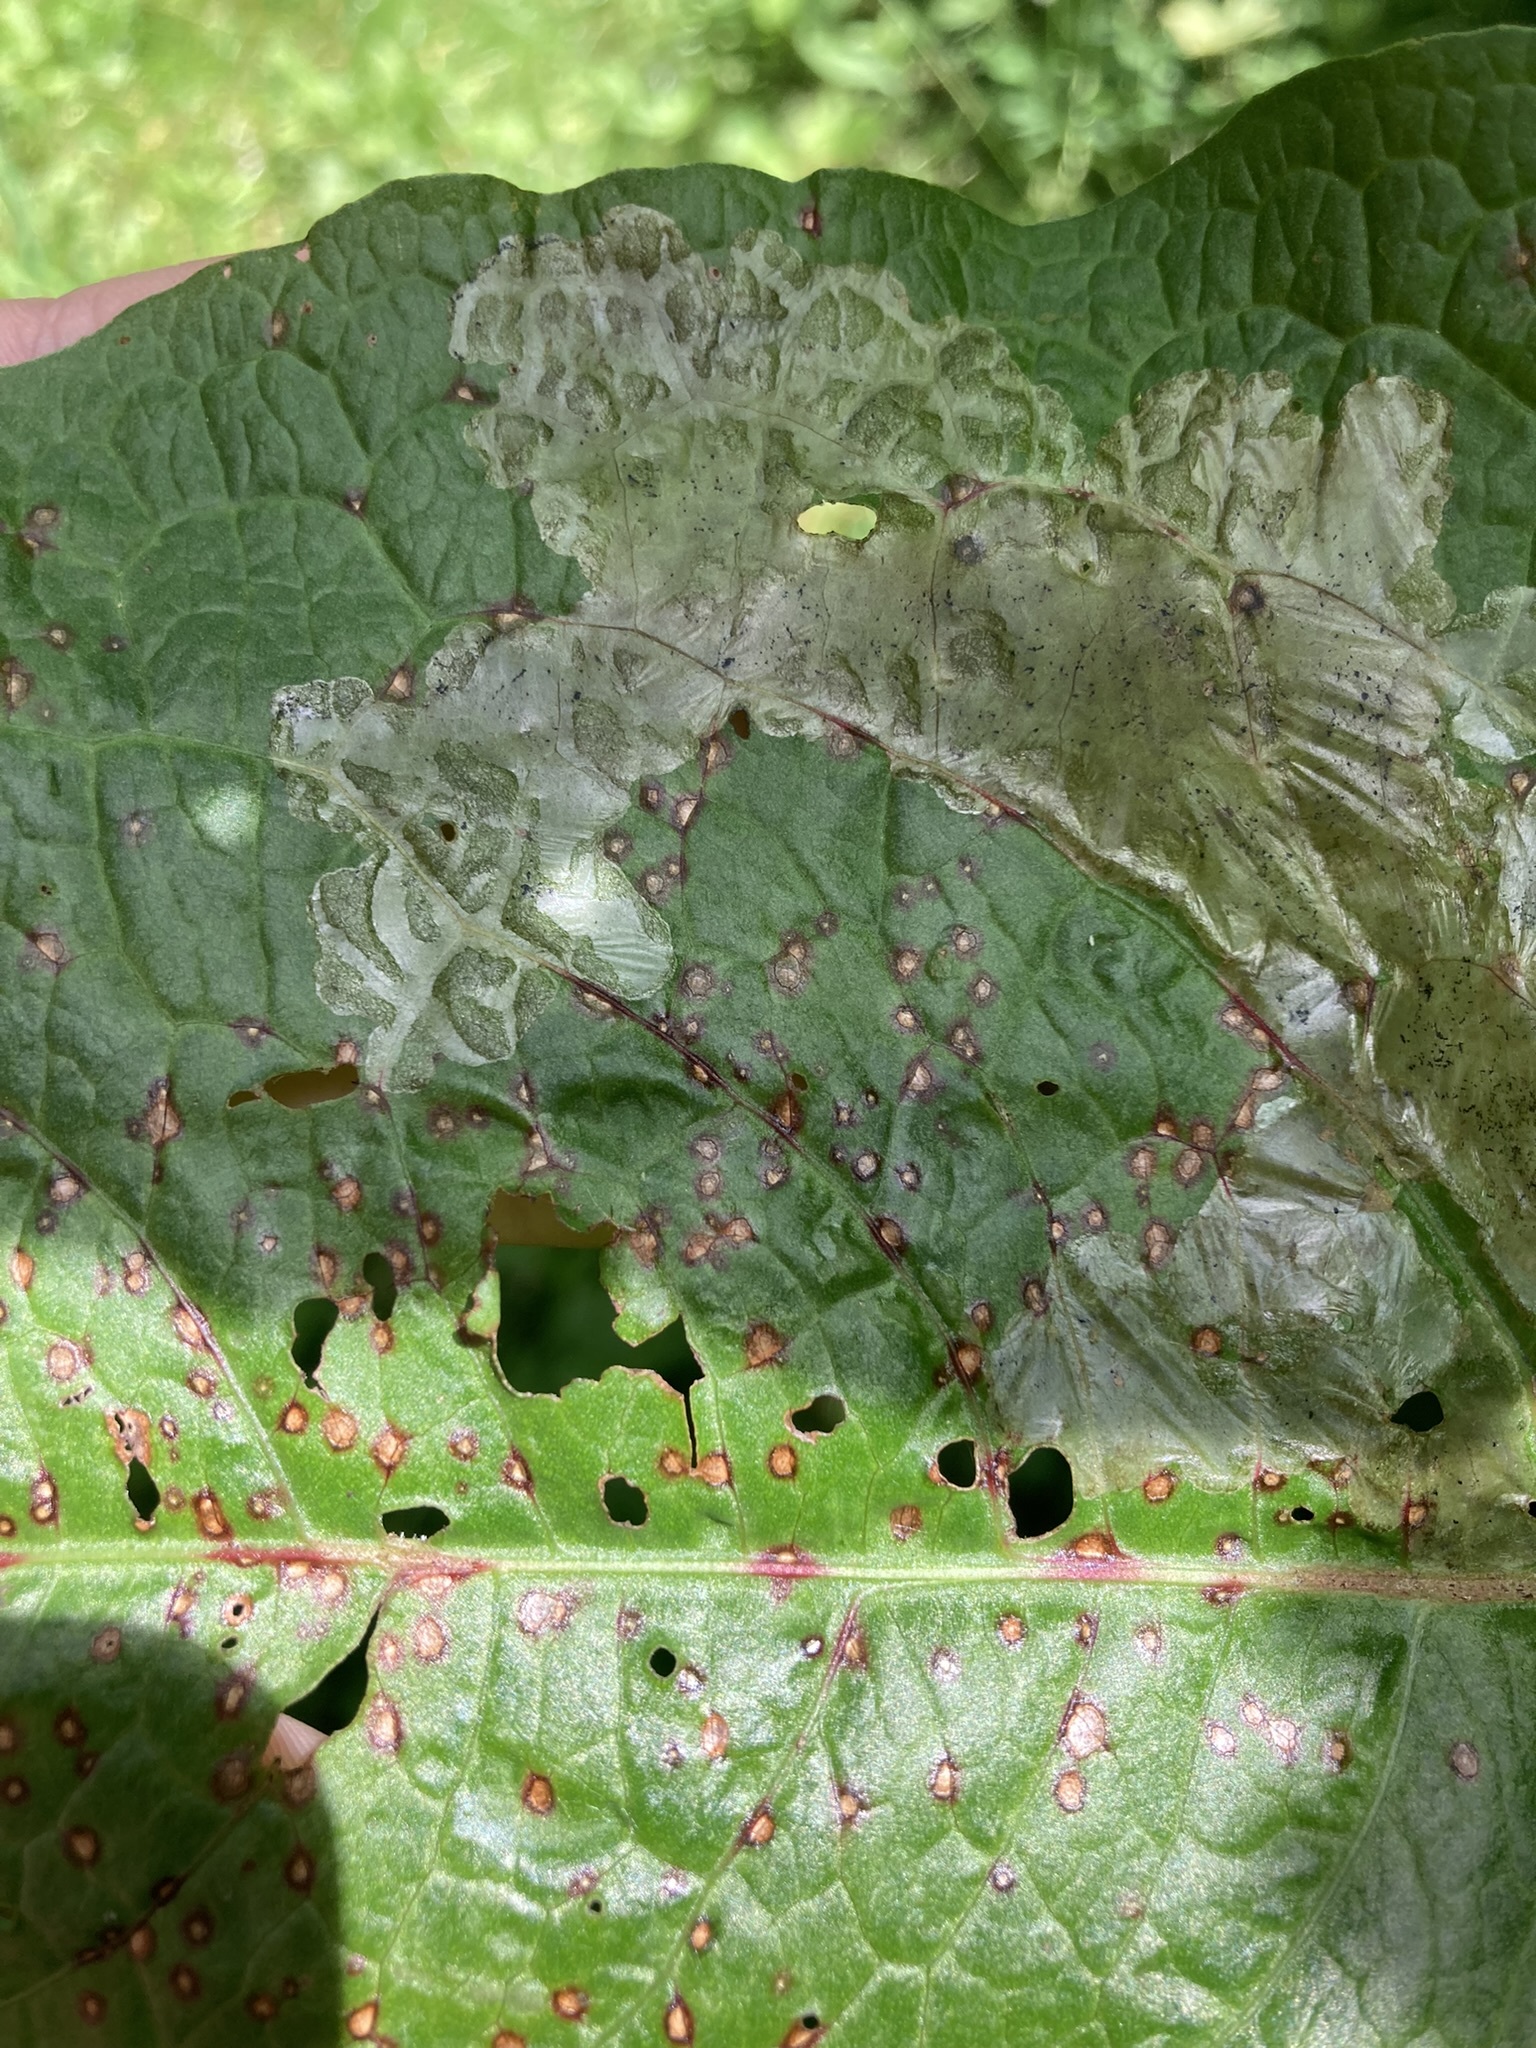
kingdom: Fungi
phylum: Ascomycota
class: Dothideomycetes
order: Mycosphaerellales
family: Mycosphaerellaceae
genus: Ramularia
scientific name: Ramularia rubella
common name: Red dock spot
